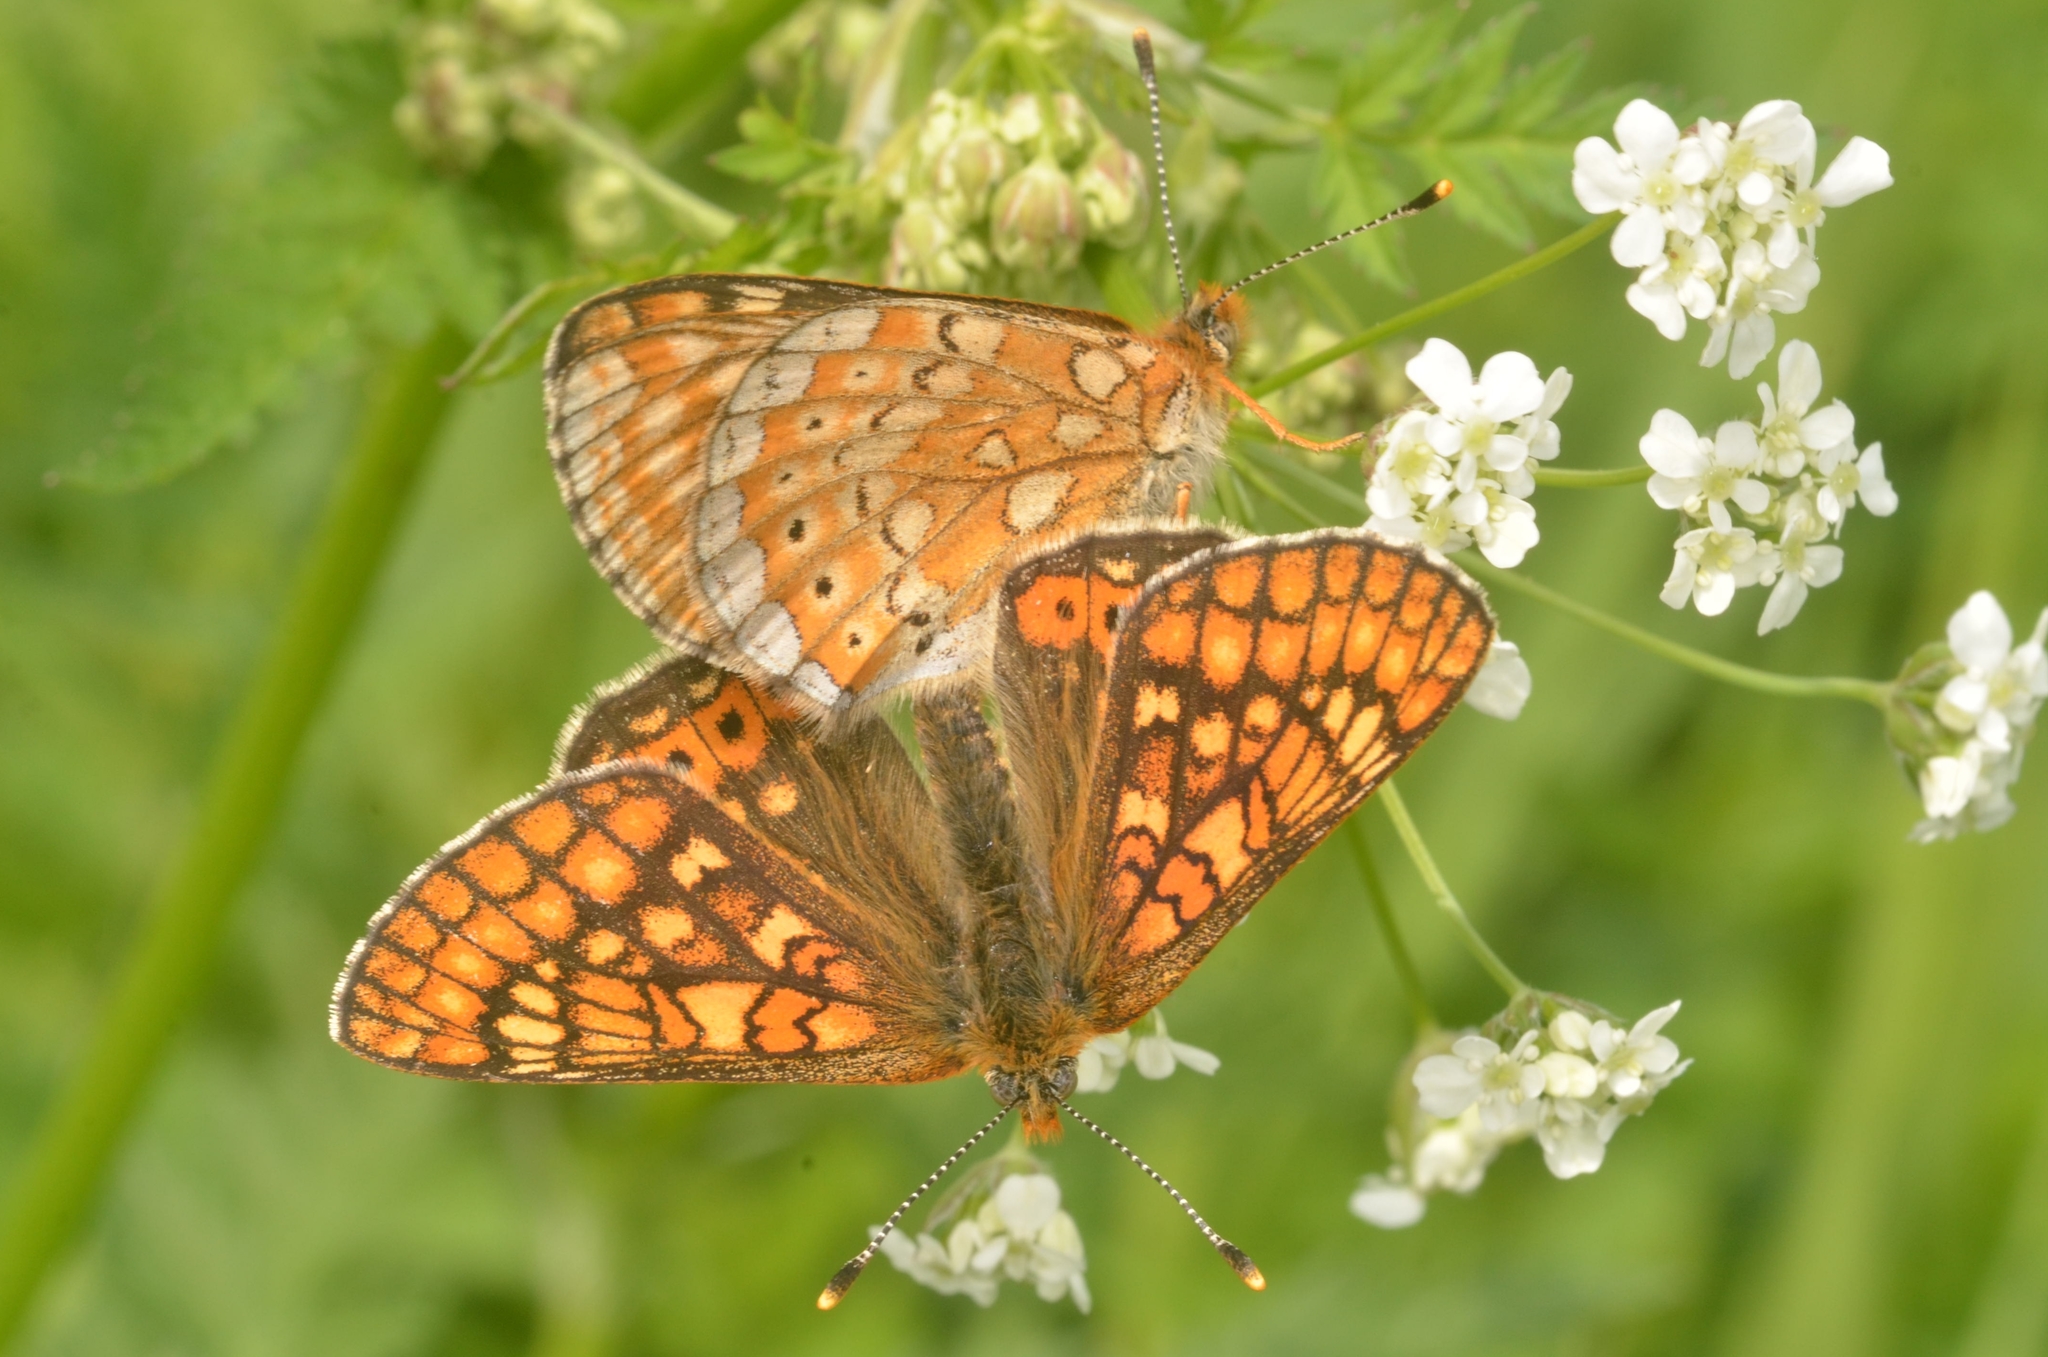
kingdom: Animalia
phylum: Arthropoda
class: Insecta
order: Lepidoptera
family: Nymphalidae
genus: Euphydryas
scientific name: Euphydryas aurinia
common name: Marsh fritillary
